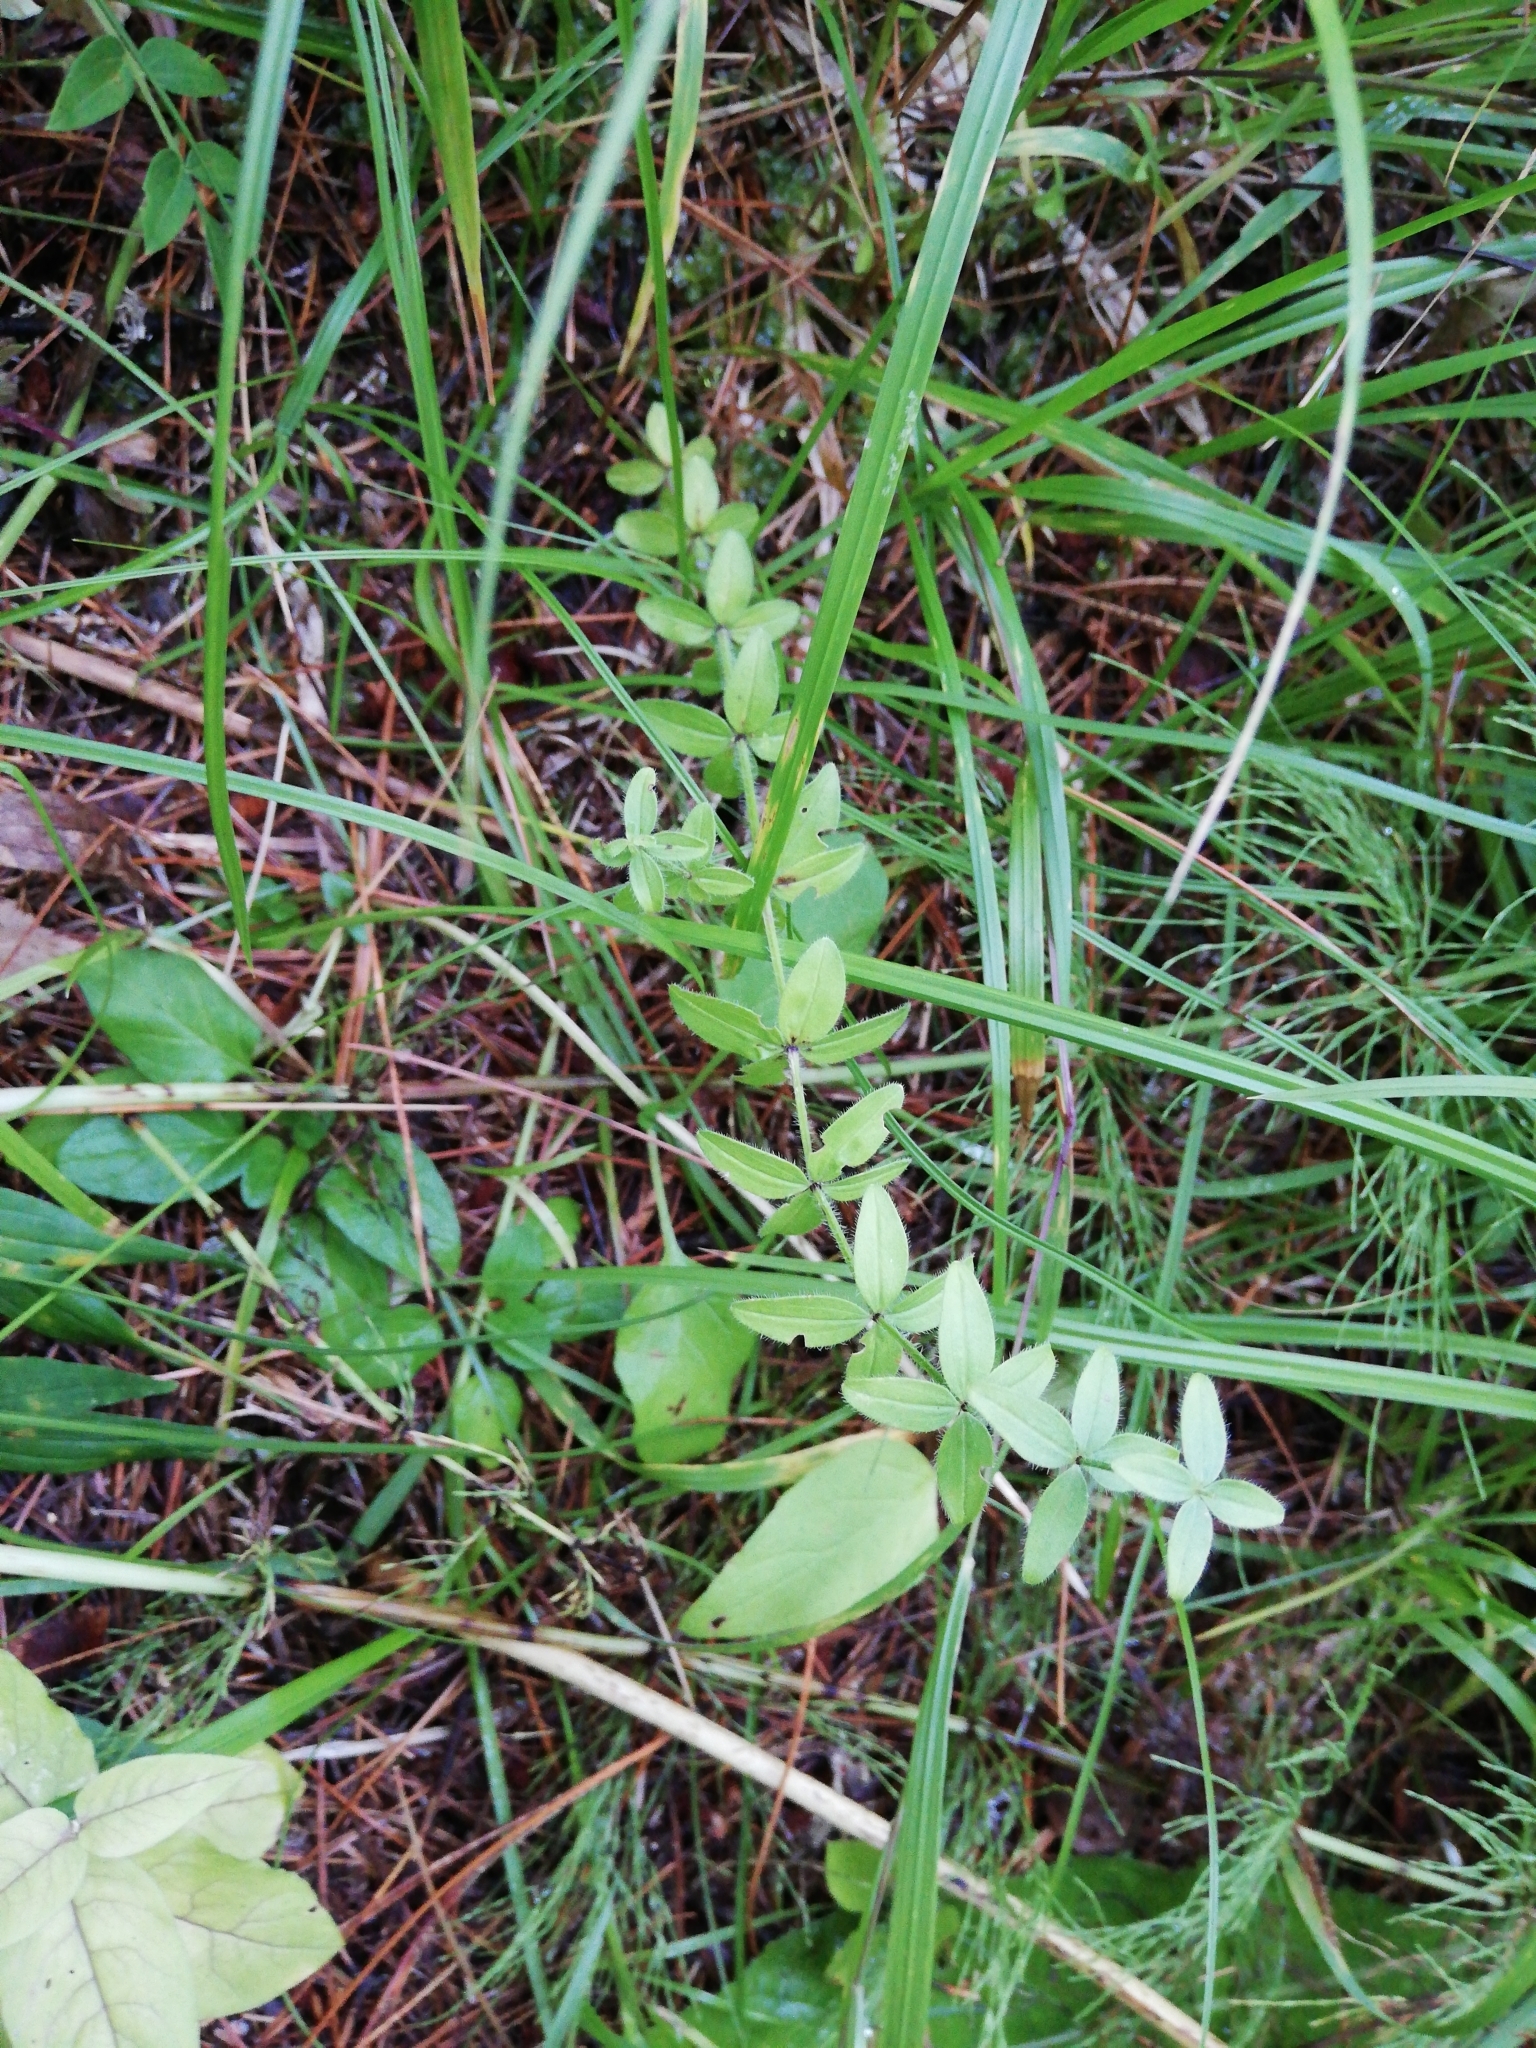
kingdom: Plantae
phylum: Tracheophyta
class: Magnoliopsida
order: Gentianales
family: Rubiaceae
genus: Cruciata
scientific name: Cruciata glabra
